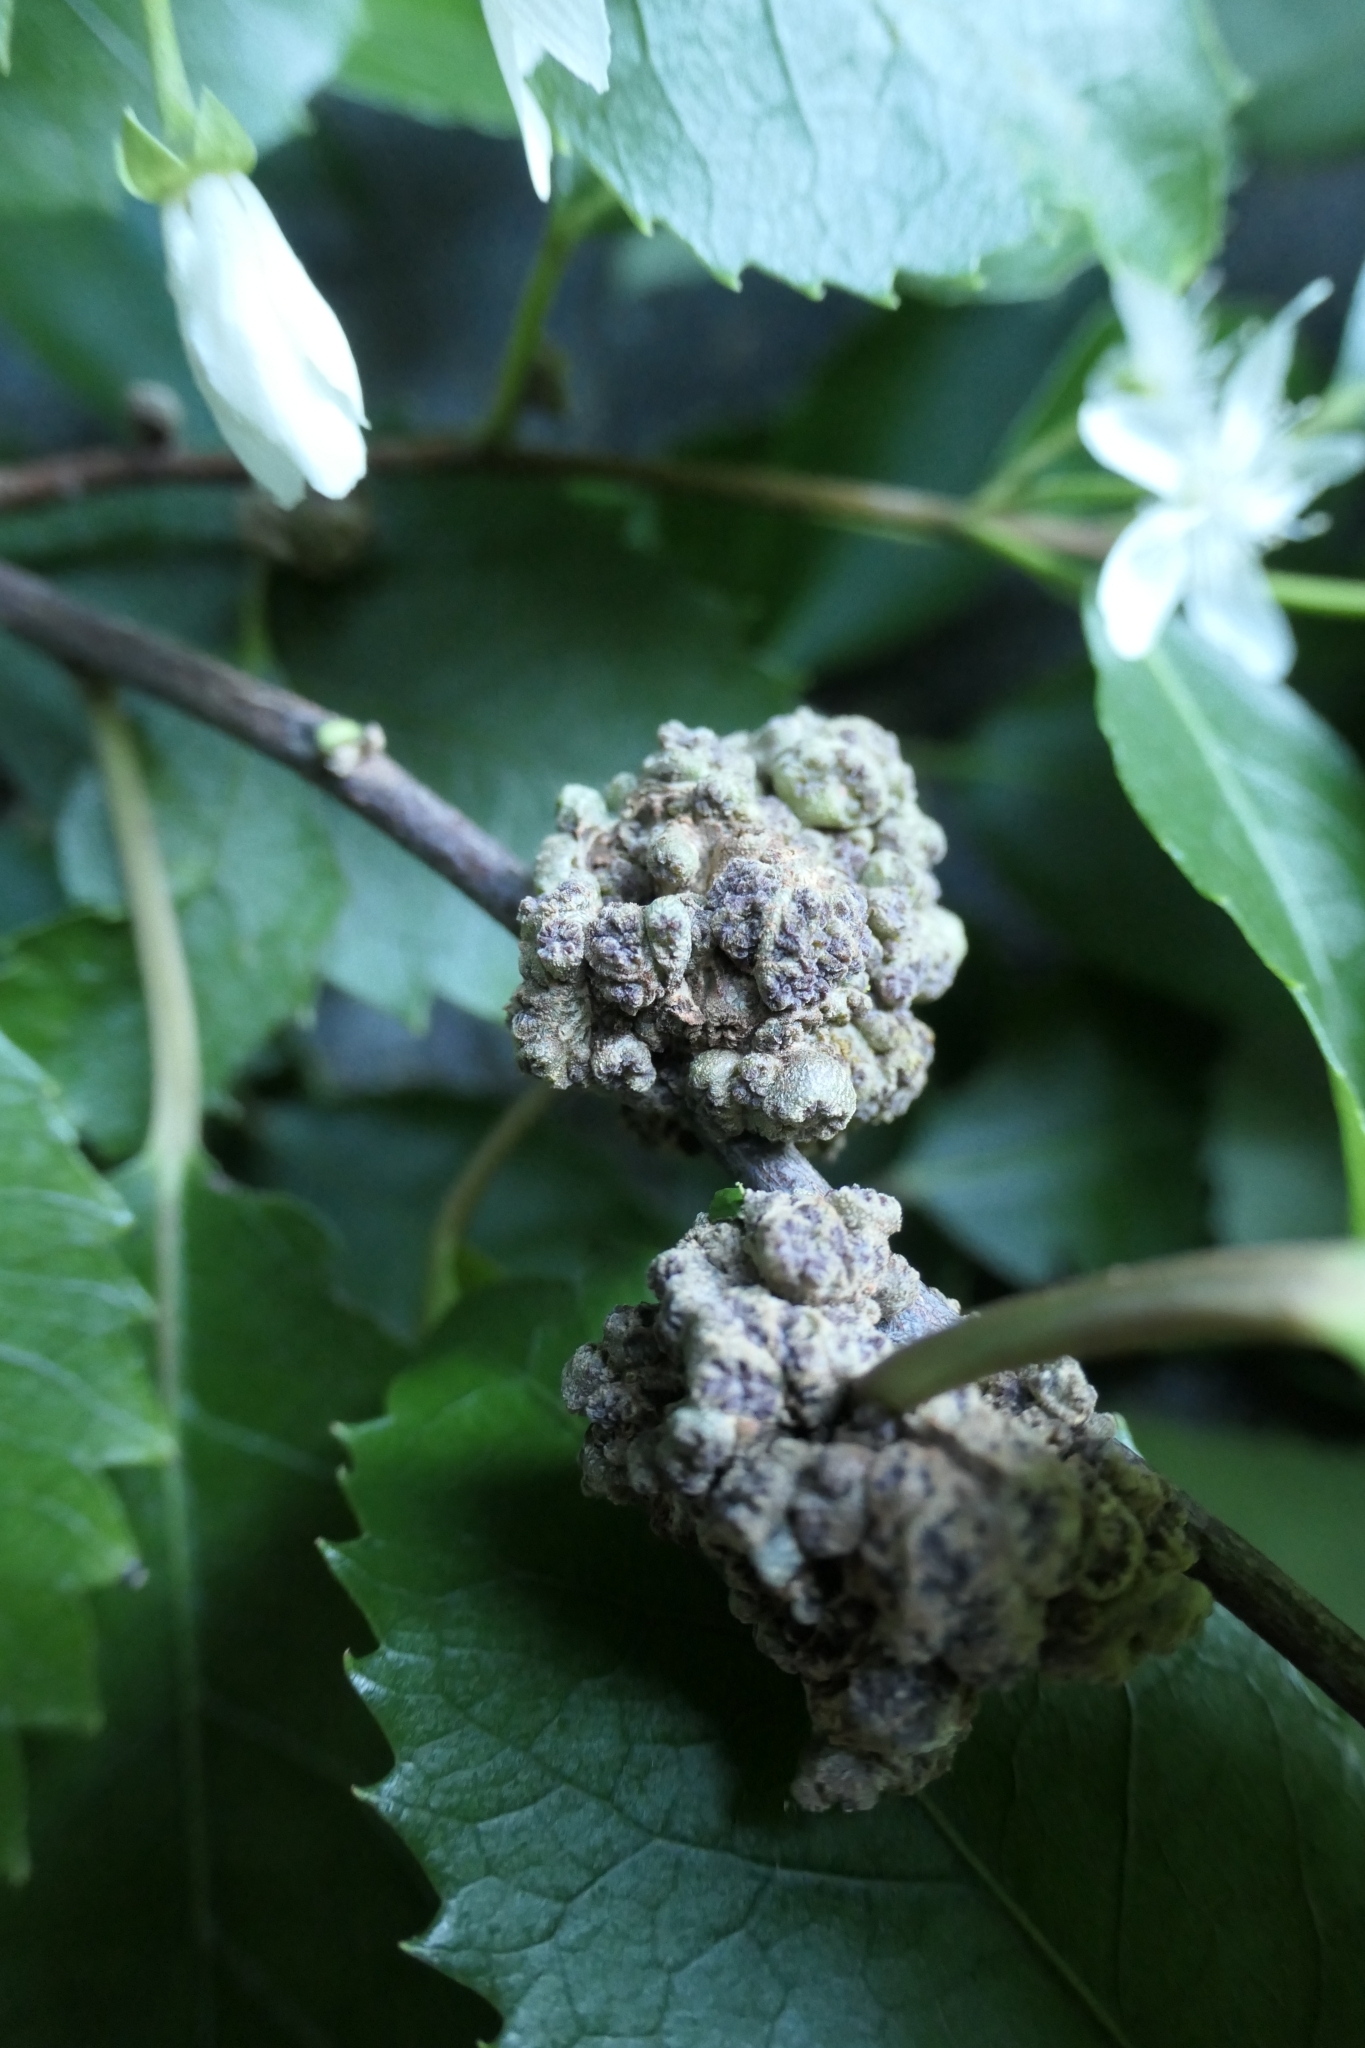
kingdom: Animalia
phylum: Arthropoda
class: Arachnida
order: Trombidiformes
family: Eriophyidae
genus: Eriophyes
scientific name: Eriophyes hoheriae
